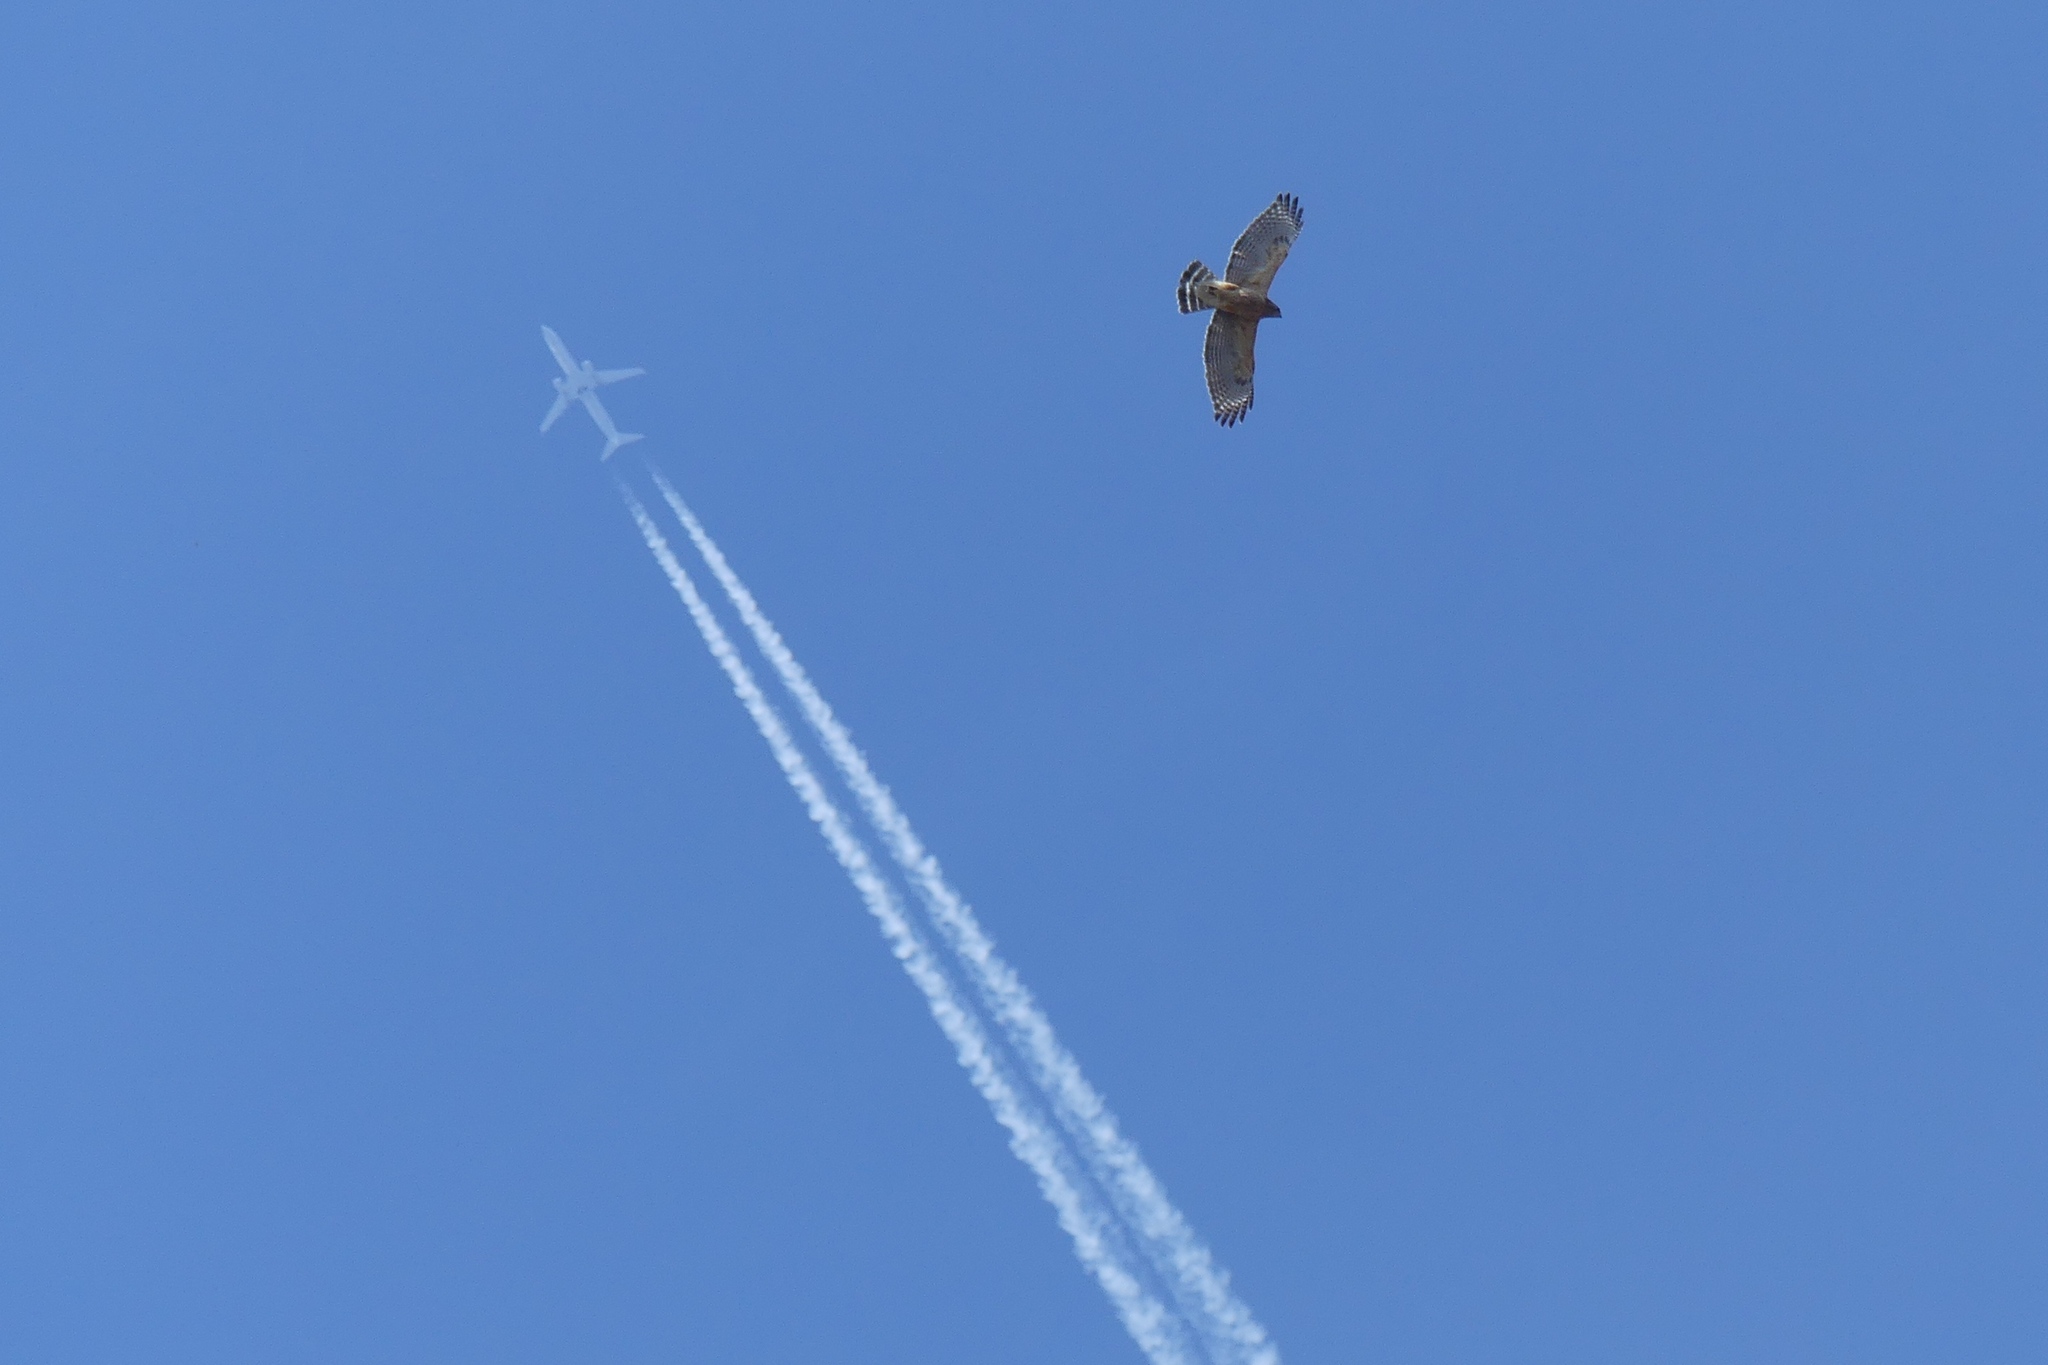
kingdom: Animalia
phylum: Chordata
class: Aves
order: Accipitriformes
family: Accipitridae
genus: Buteo
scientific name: Buteo lineatus
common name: Red-shouldered hawk
